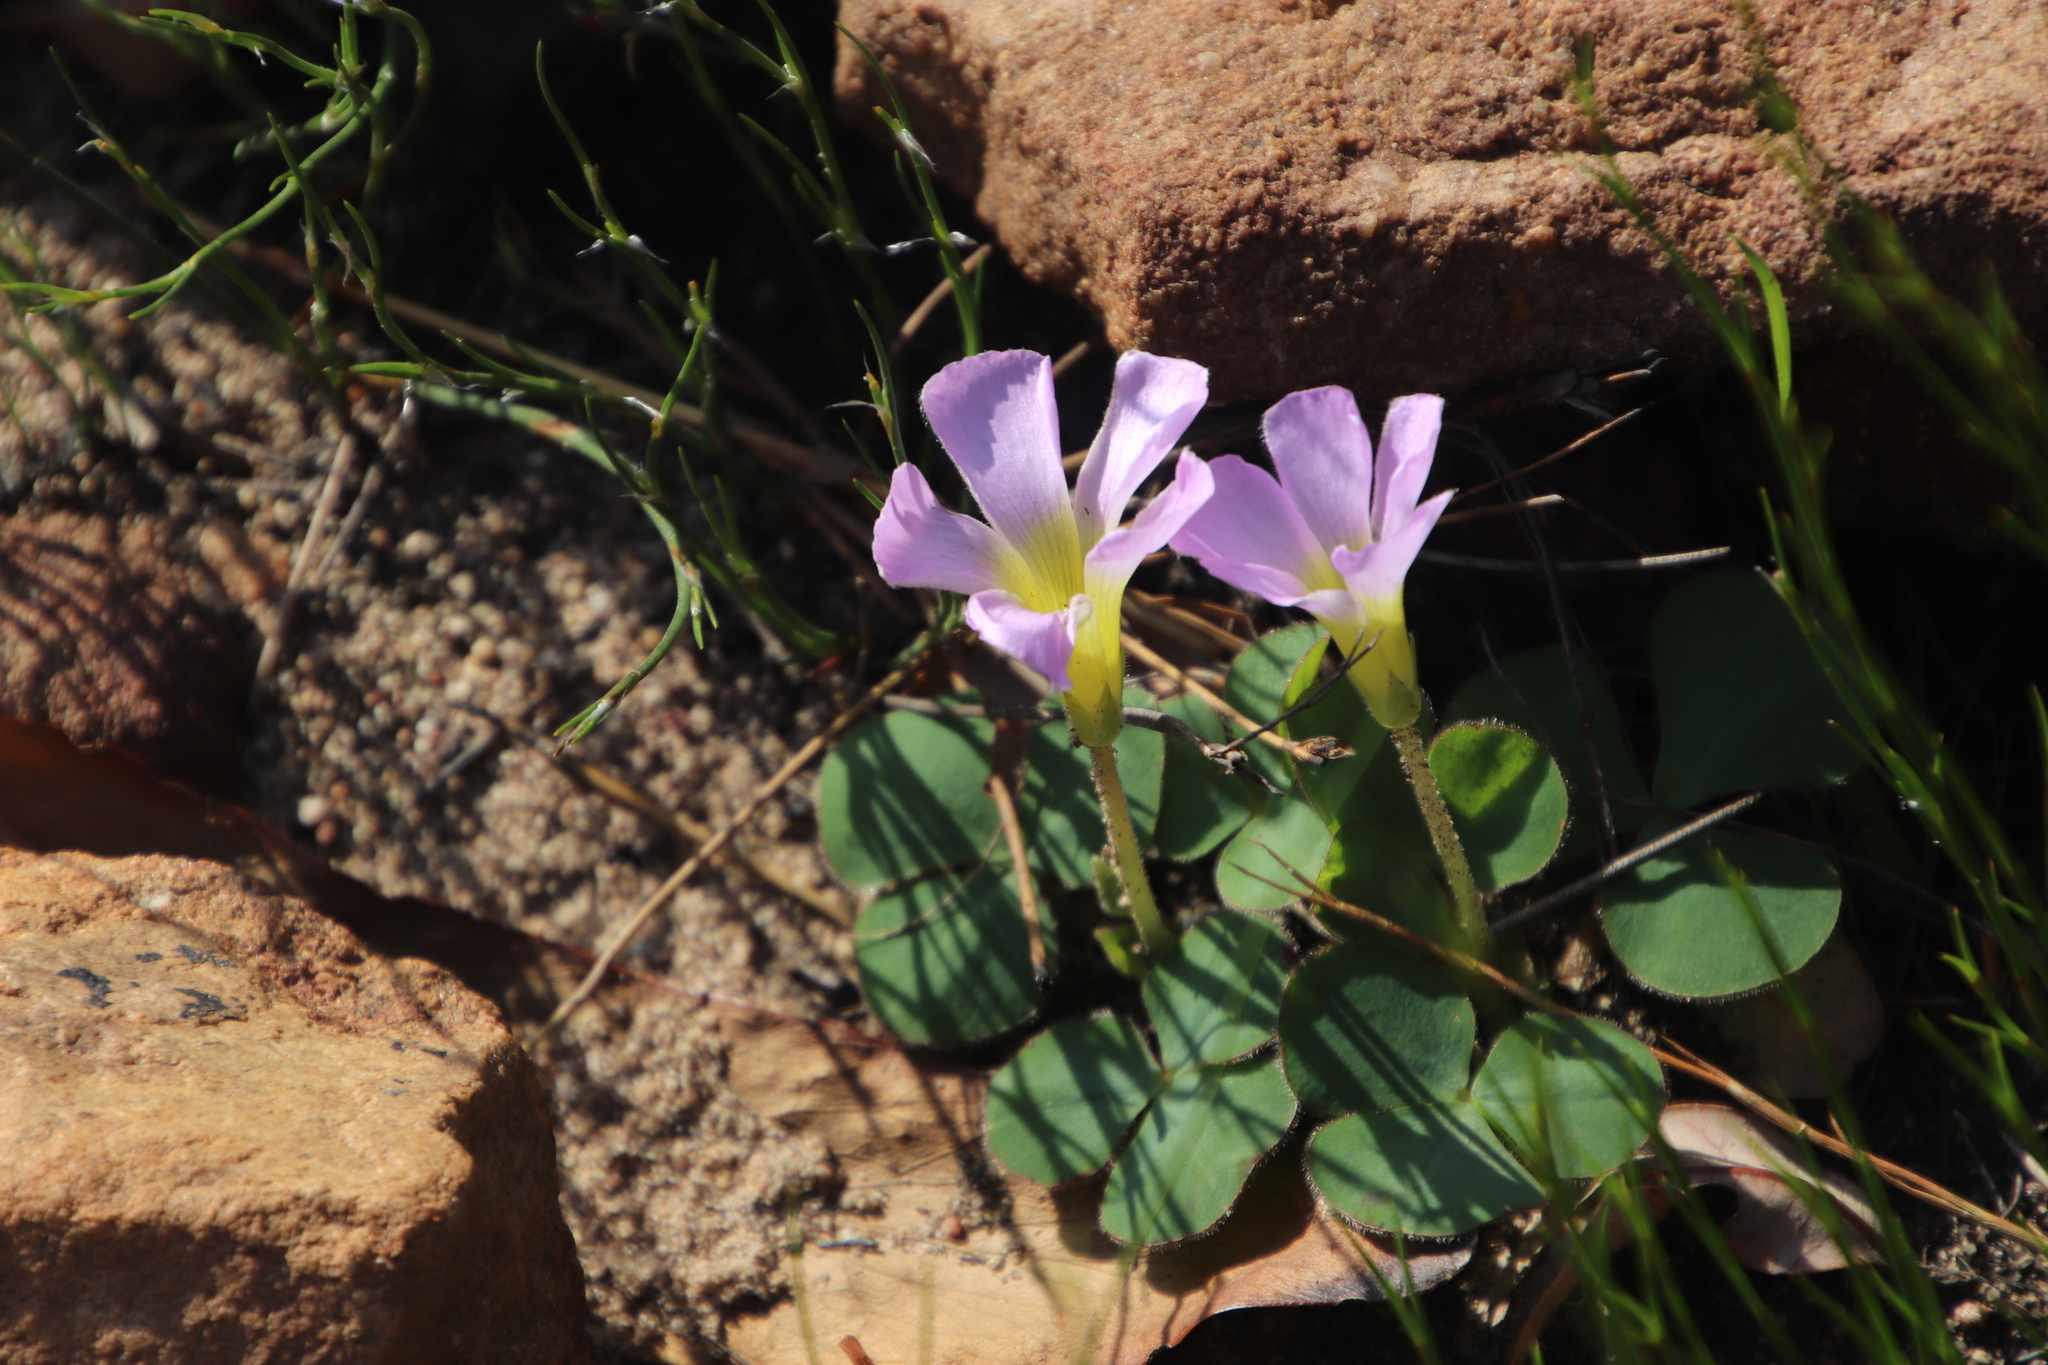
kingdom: Plantae
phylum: Tracheophyta
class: Magnoliopsida
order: Oxalidales
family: Oxalidaceae
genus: Oxalis
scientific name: Oxalis purpurea
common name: Purple woodsorrel
